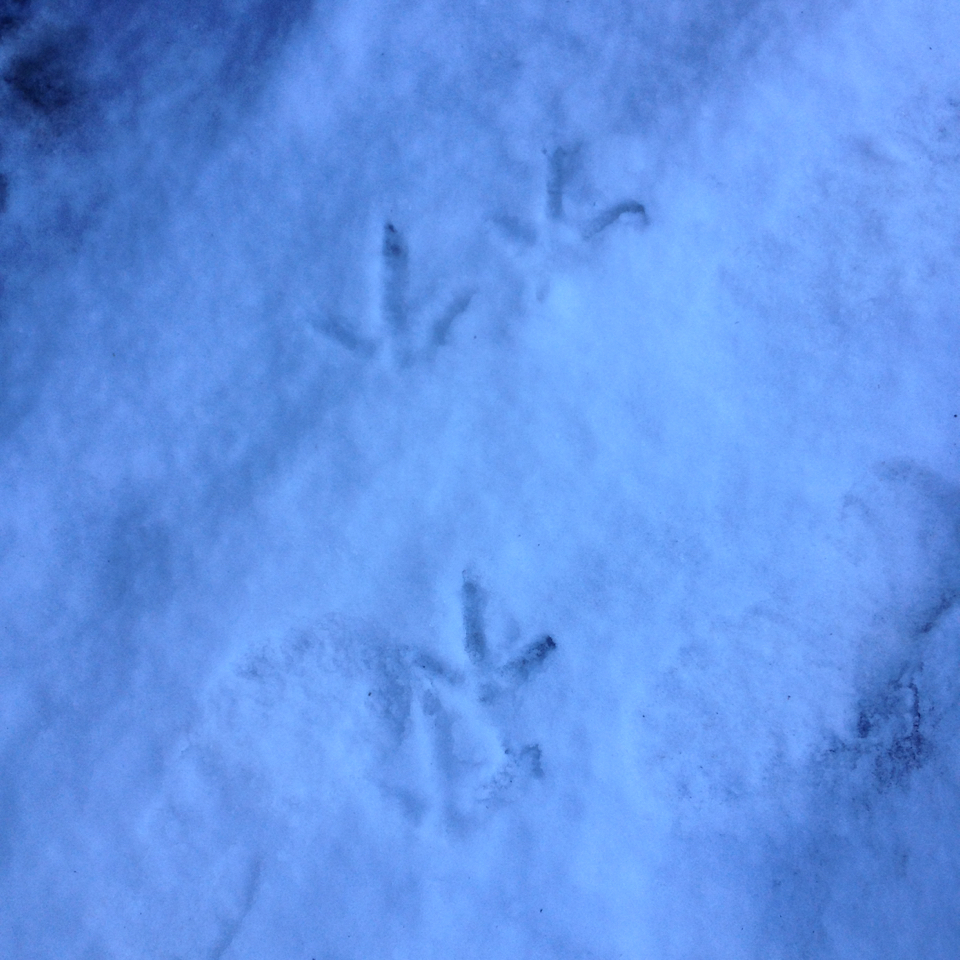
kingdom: Animalia
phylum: Chordata
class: Aves
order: Galliformes
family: Phasianidae
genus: Meleagris
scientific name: Meleagris gallopavo
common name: Wild turkey
